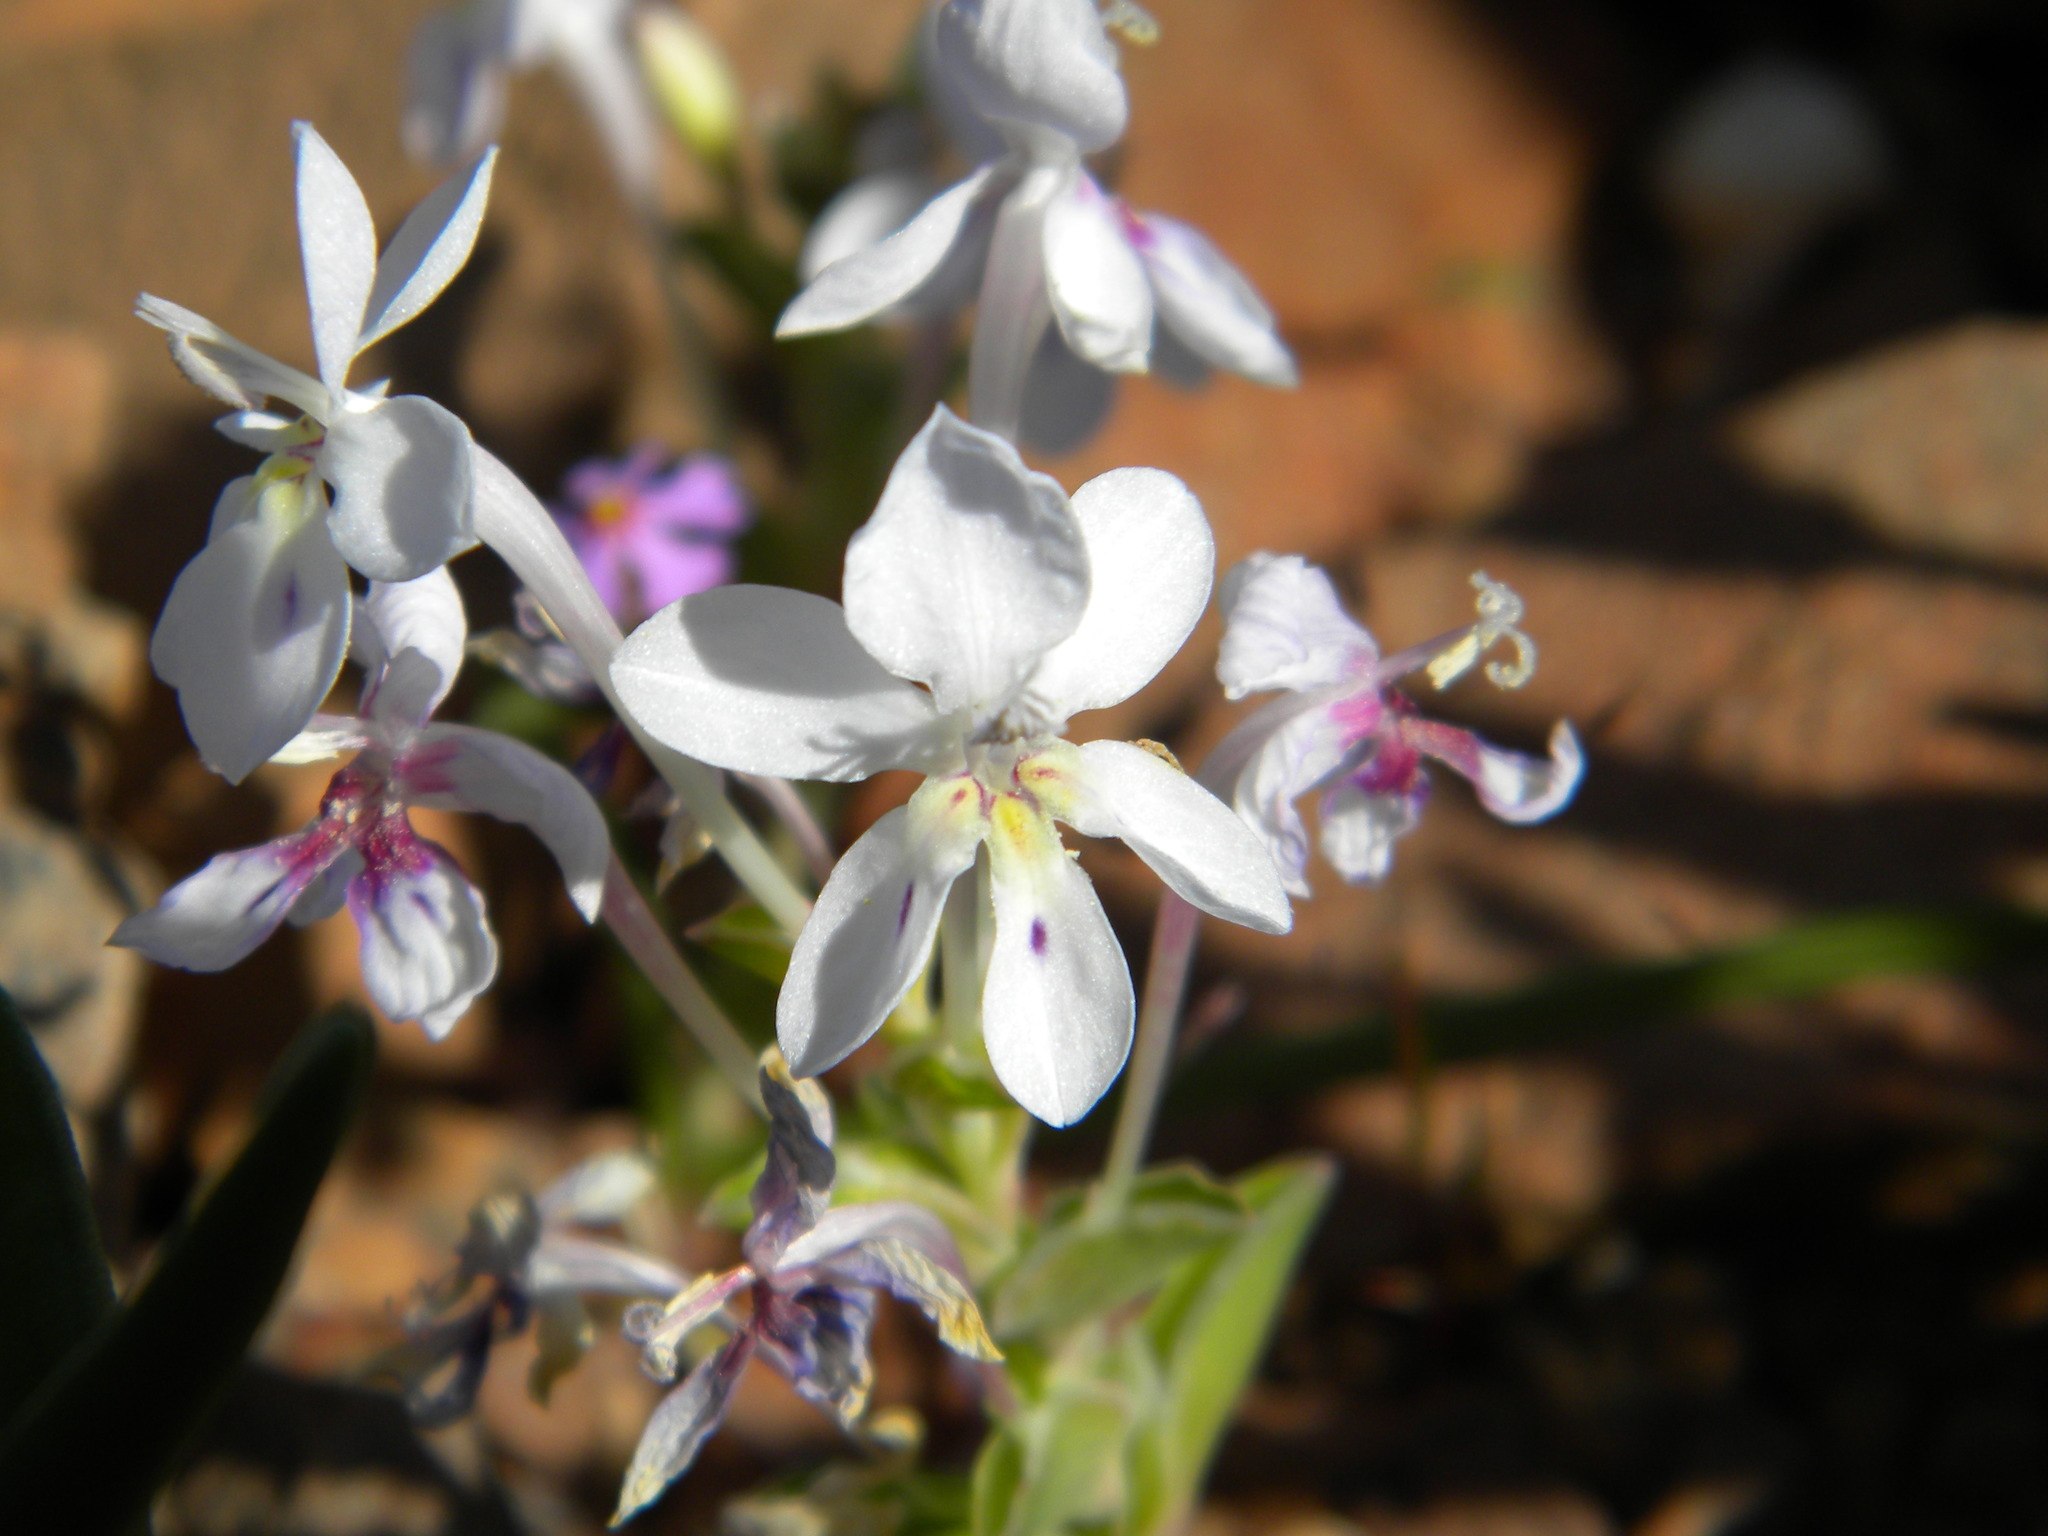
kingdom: Plantae
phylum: Tracheophyta
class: Liliopsida
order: Asparagales
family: Iridaceae
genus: Lapeirousia
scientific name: Lapeirousia pyramidalis
